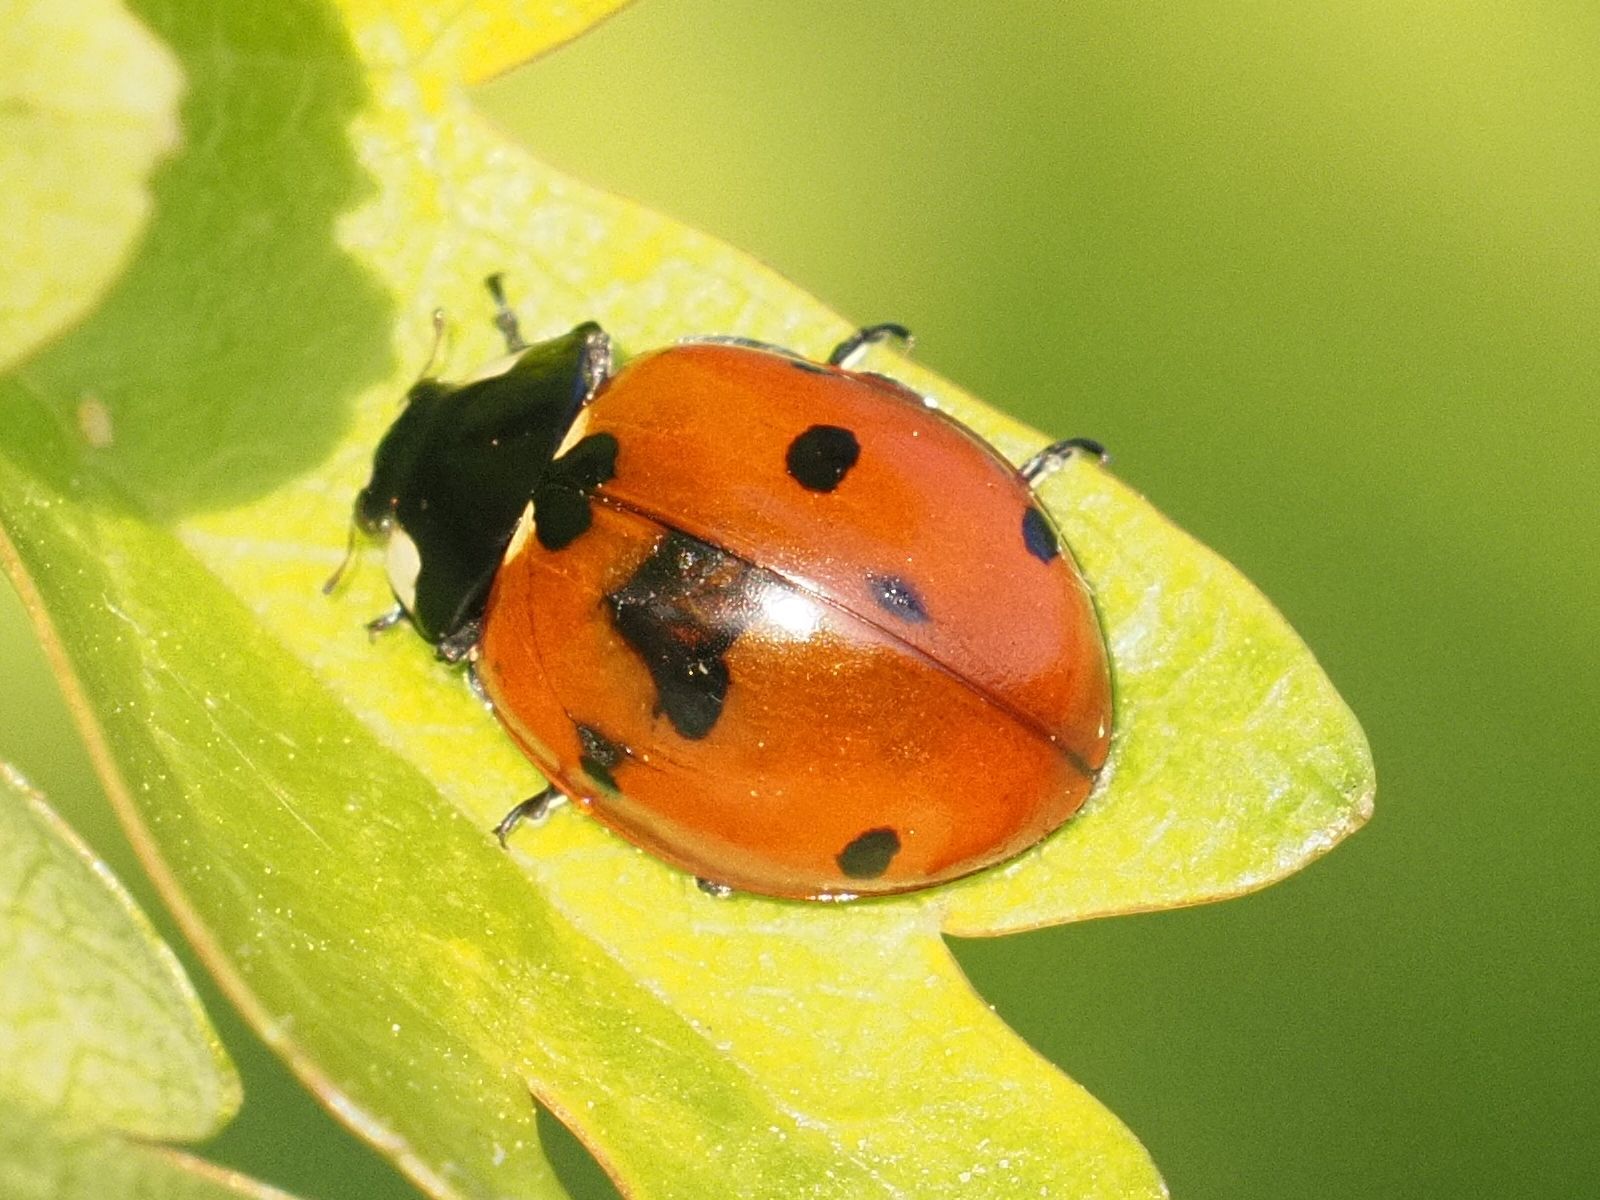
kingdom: Animalia
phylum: Arthropoda
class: Insecta
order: Coleoptera
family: Coccinellidae
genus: Coccinella
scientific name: Coccinella septempunctata
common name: Sevenspotted lady beetle
